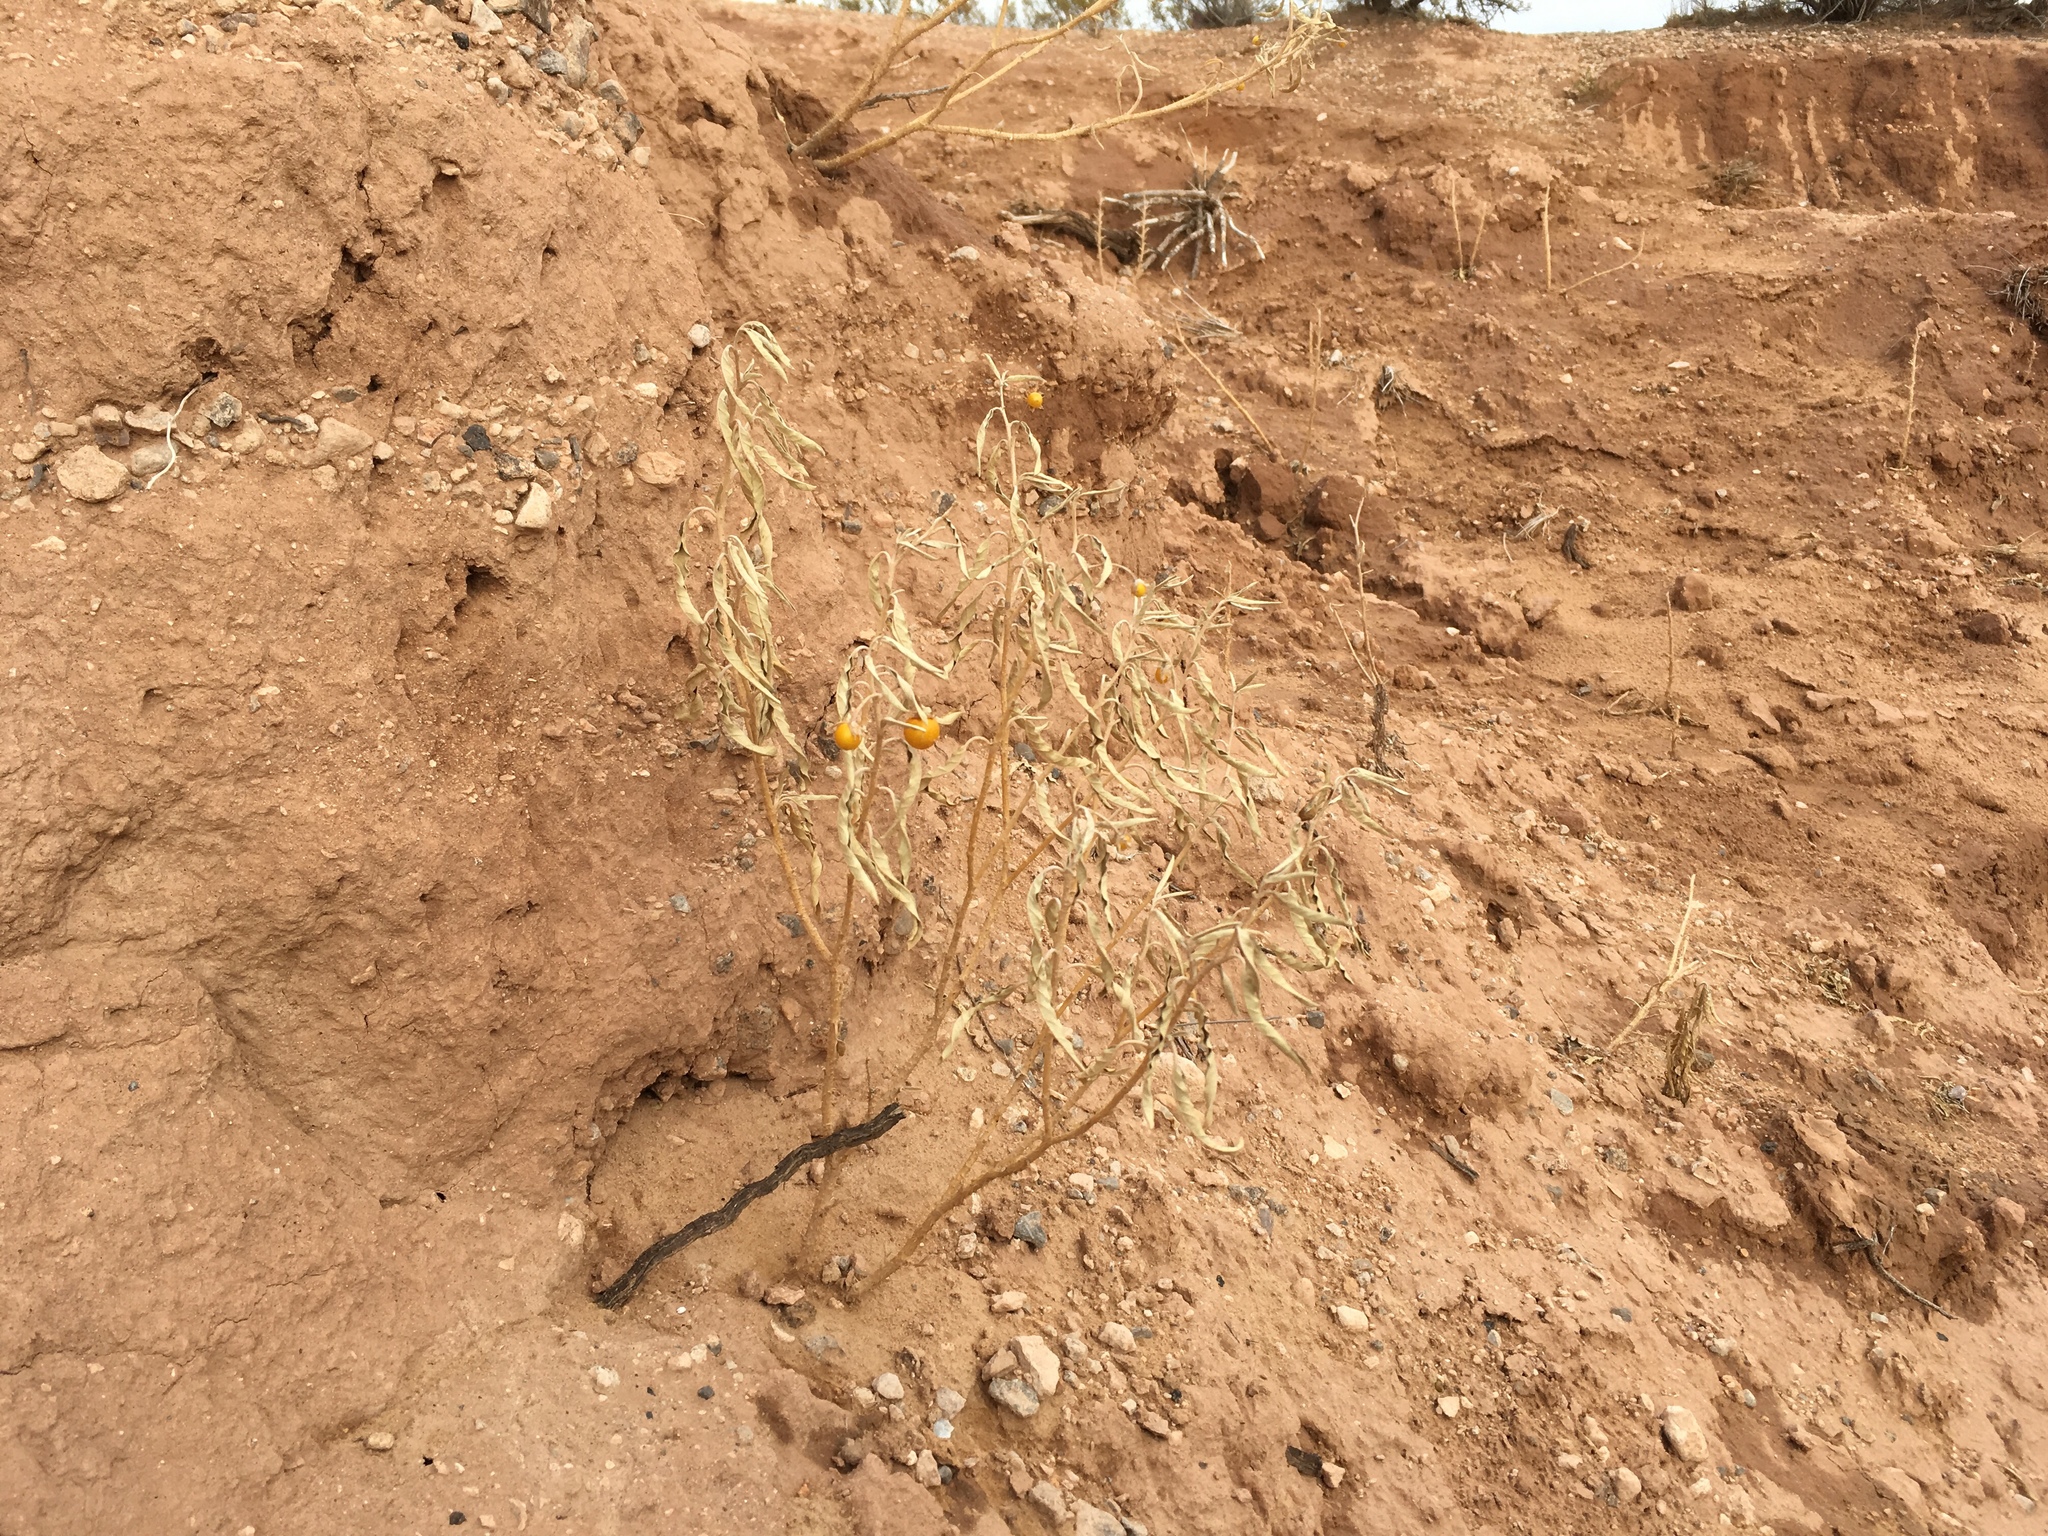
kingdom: Plantae
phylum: Tracheophyta
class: Magnoliopsida
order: Solanales
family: Solanaceae
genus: Solanum
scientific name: Solanum elaeagnifolium
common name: Silverleaf nightshade
